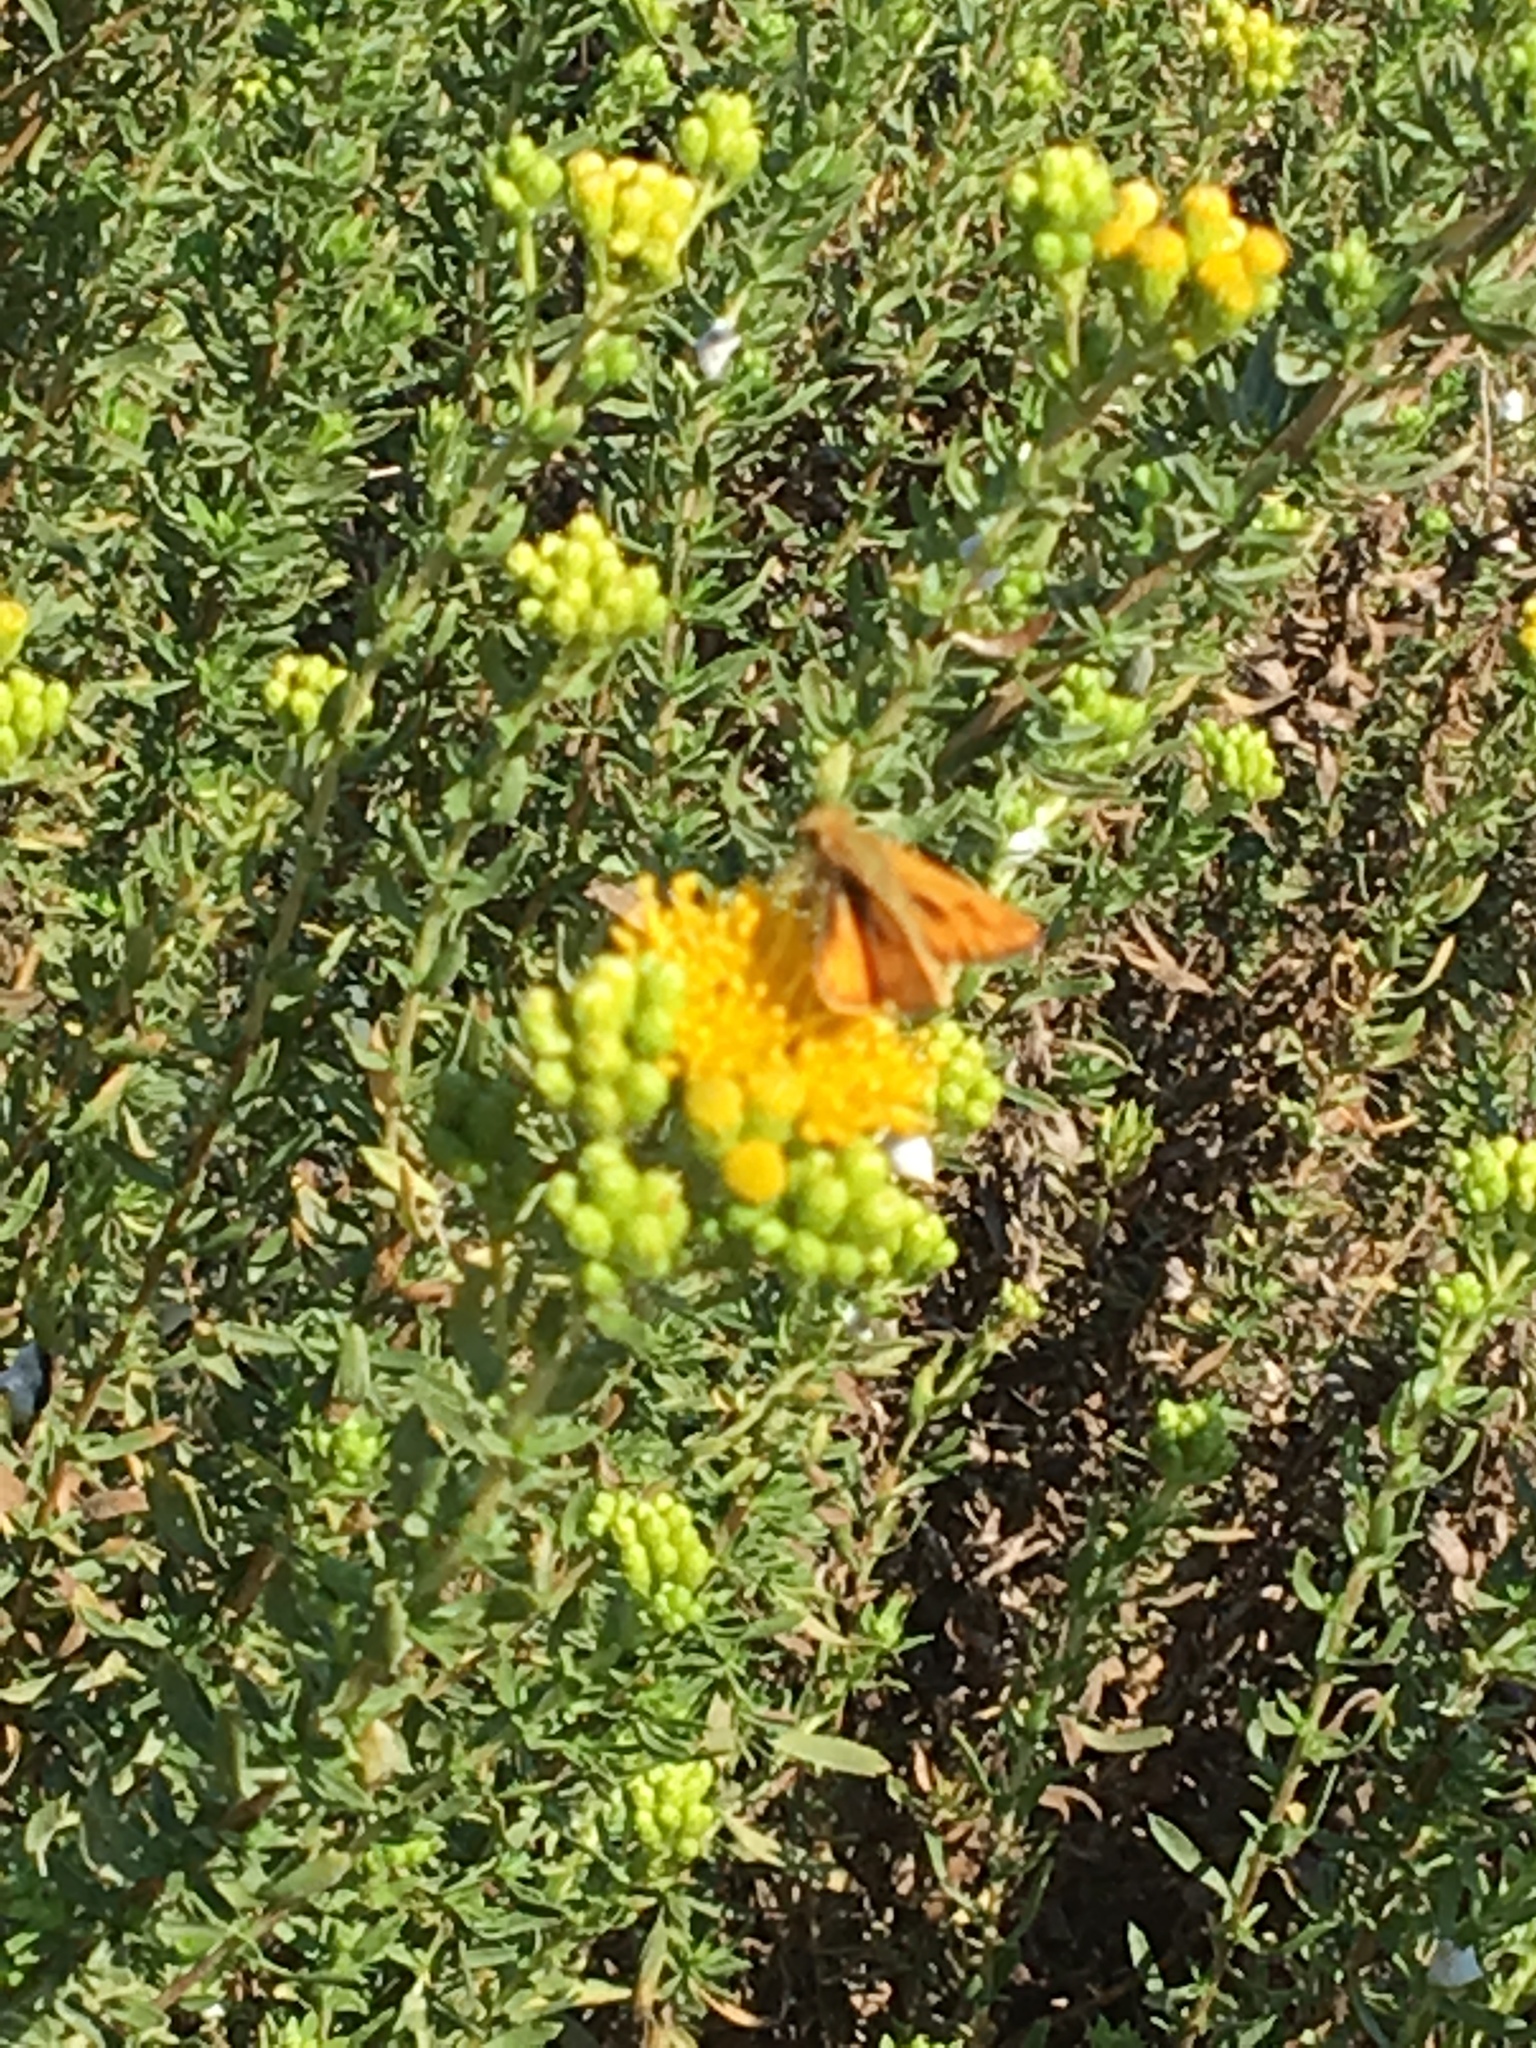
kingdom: Animalia
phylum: Arthropoda
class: Insecta
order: Lepidoptera
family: Hesperiidae
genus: Hylephila
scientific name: Hylephila phyleus
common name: Fiery skipper
